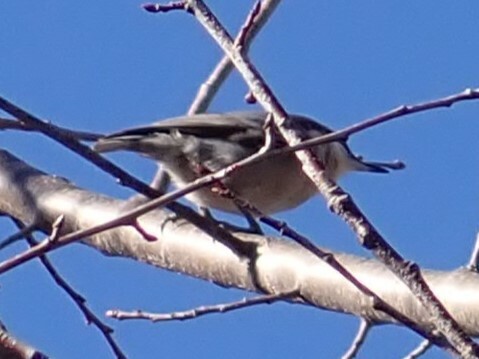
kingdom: Animalia
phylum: Chordata
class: Aves
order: Passeriformes
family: Sittidae
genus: Sitta
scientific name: Sitta pusilla
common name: Brown-headed nuthatch
